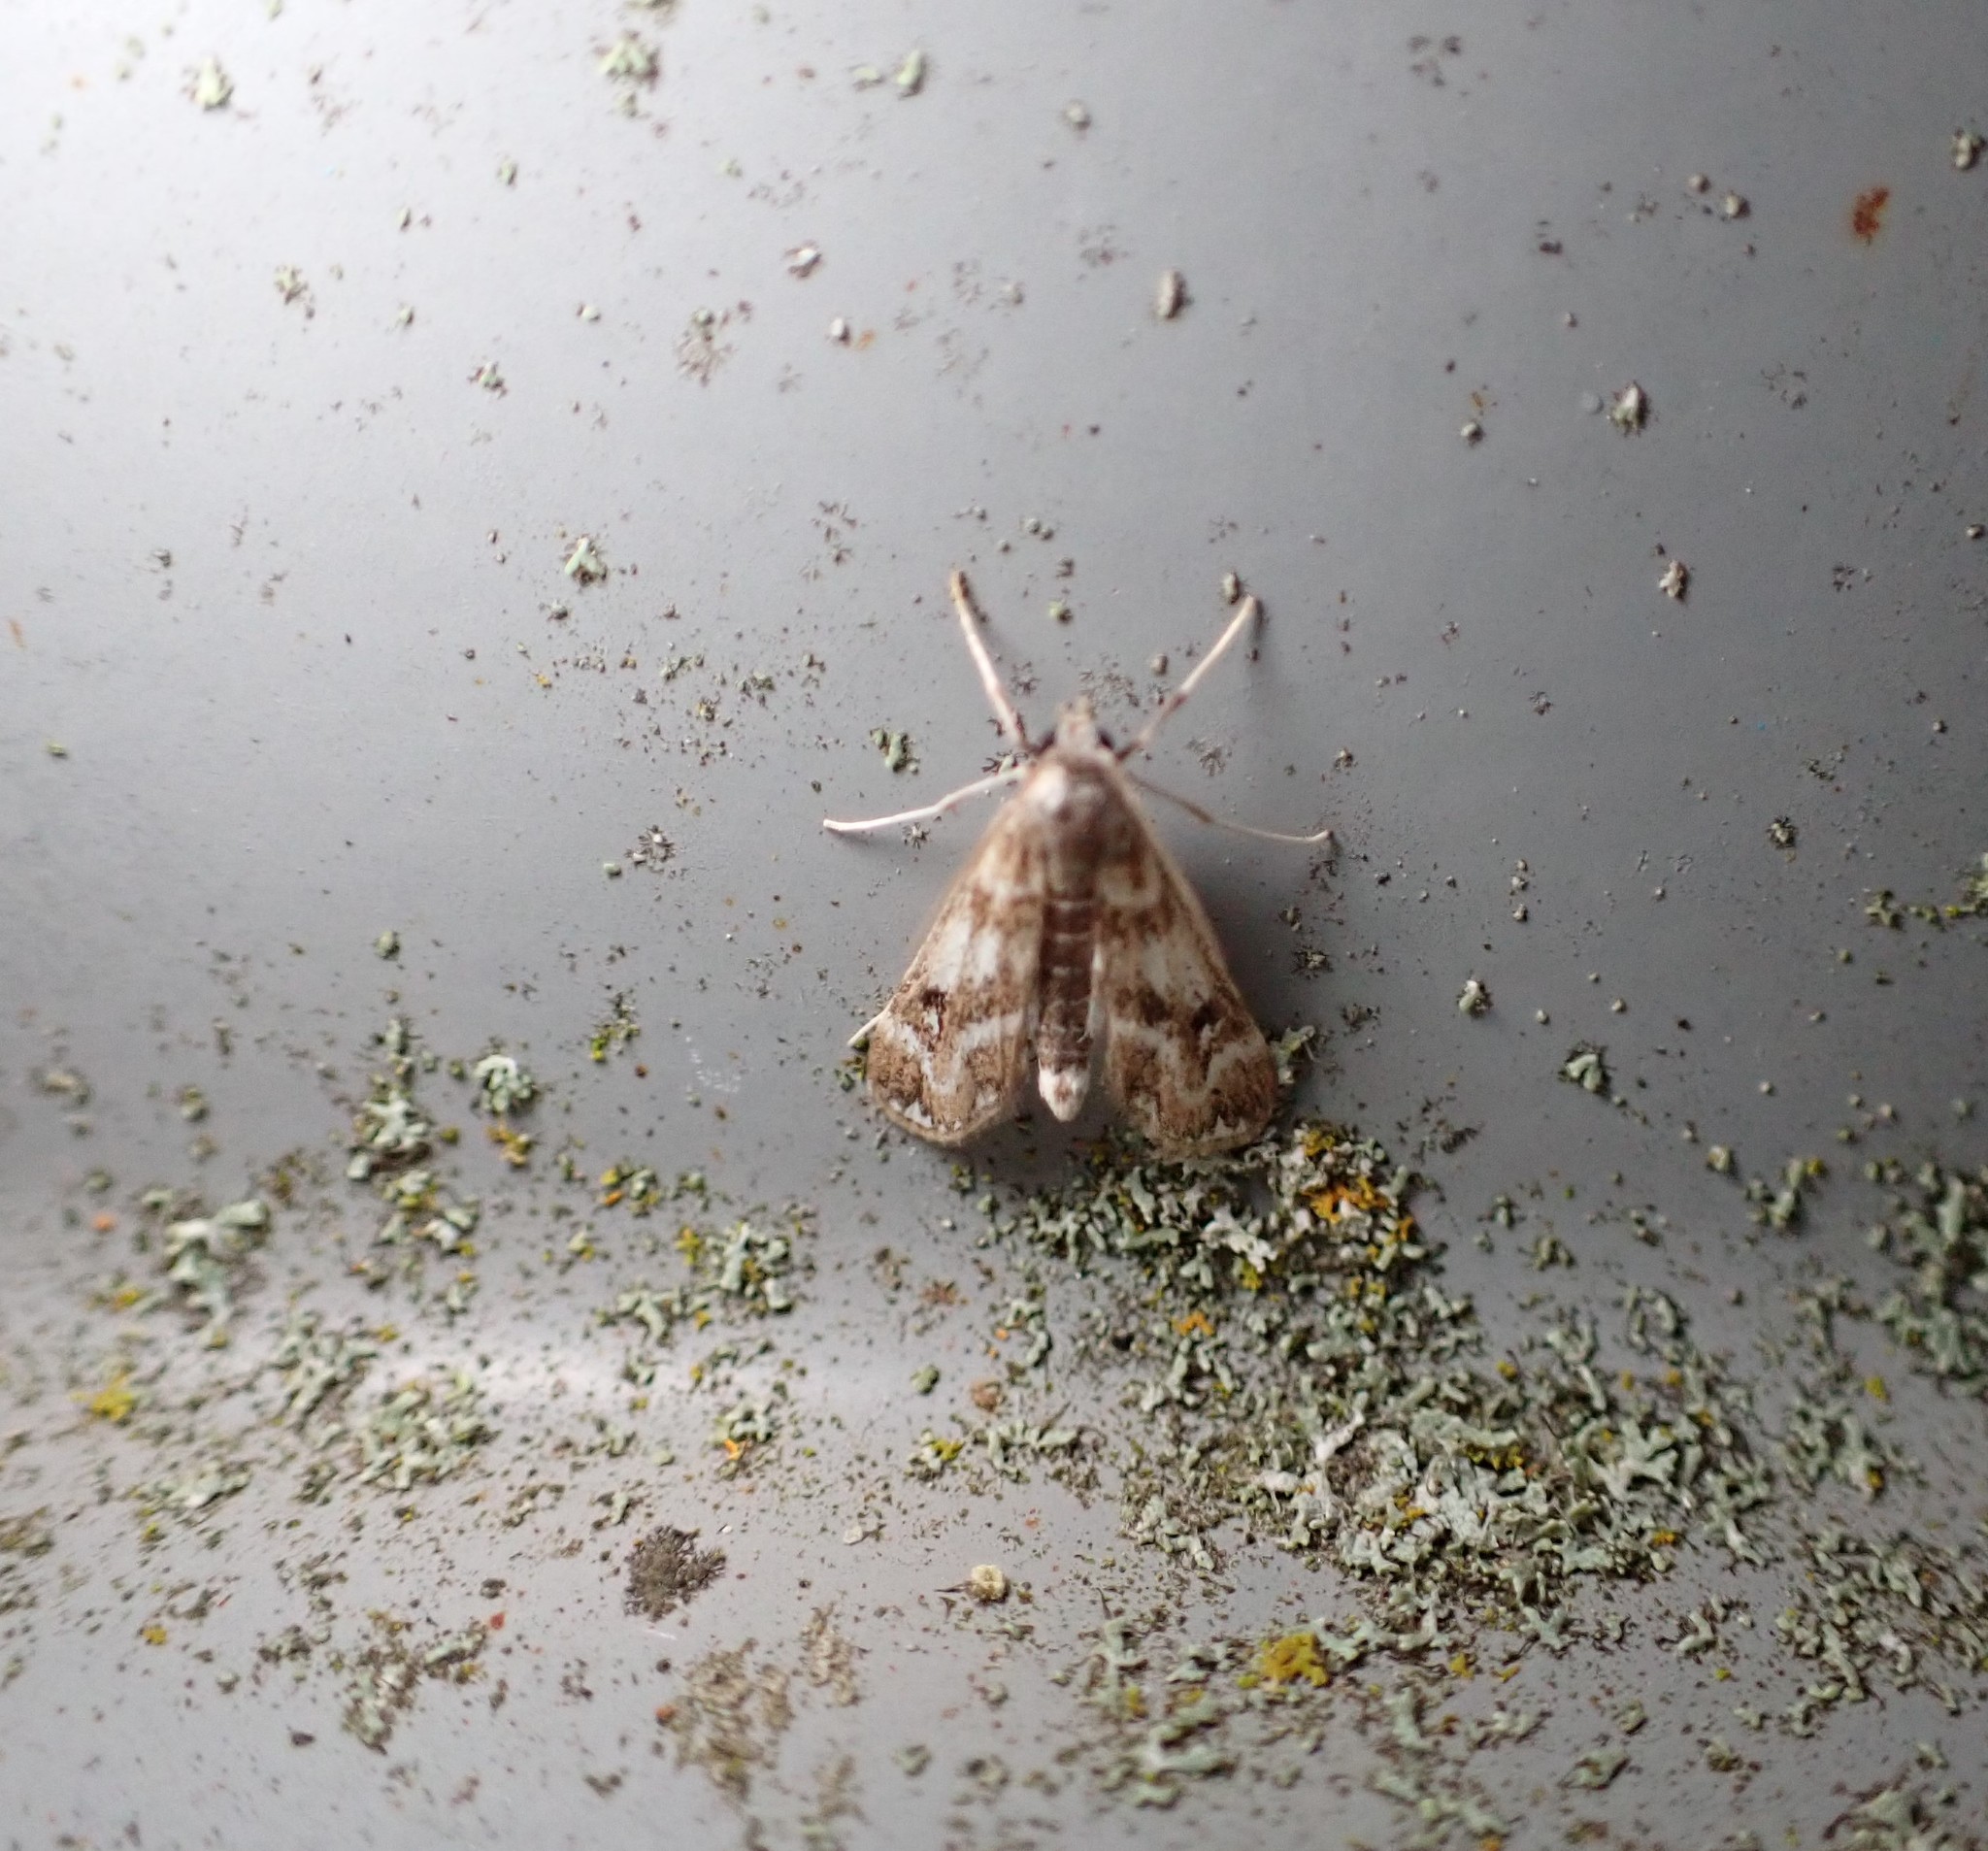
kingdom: Animalia
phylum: Arthropoda
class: Insecta
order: Lepidoptera
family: Crambidae
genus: Hygraula
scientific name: Hygraula nitens
